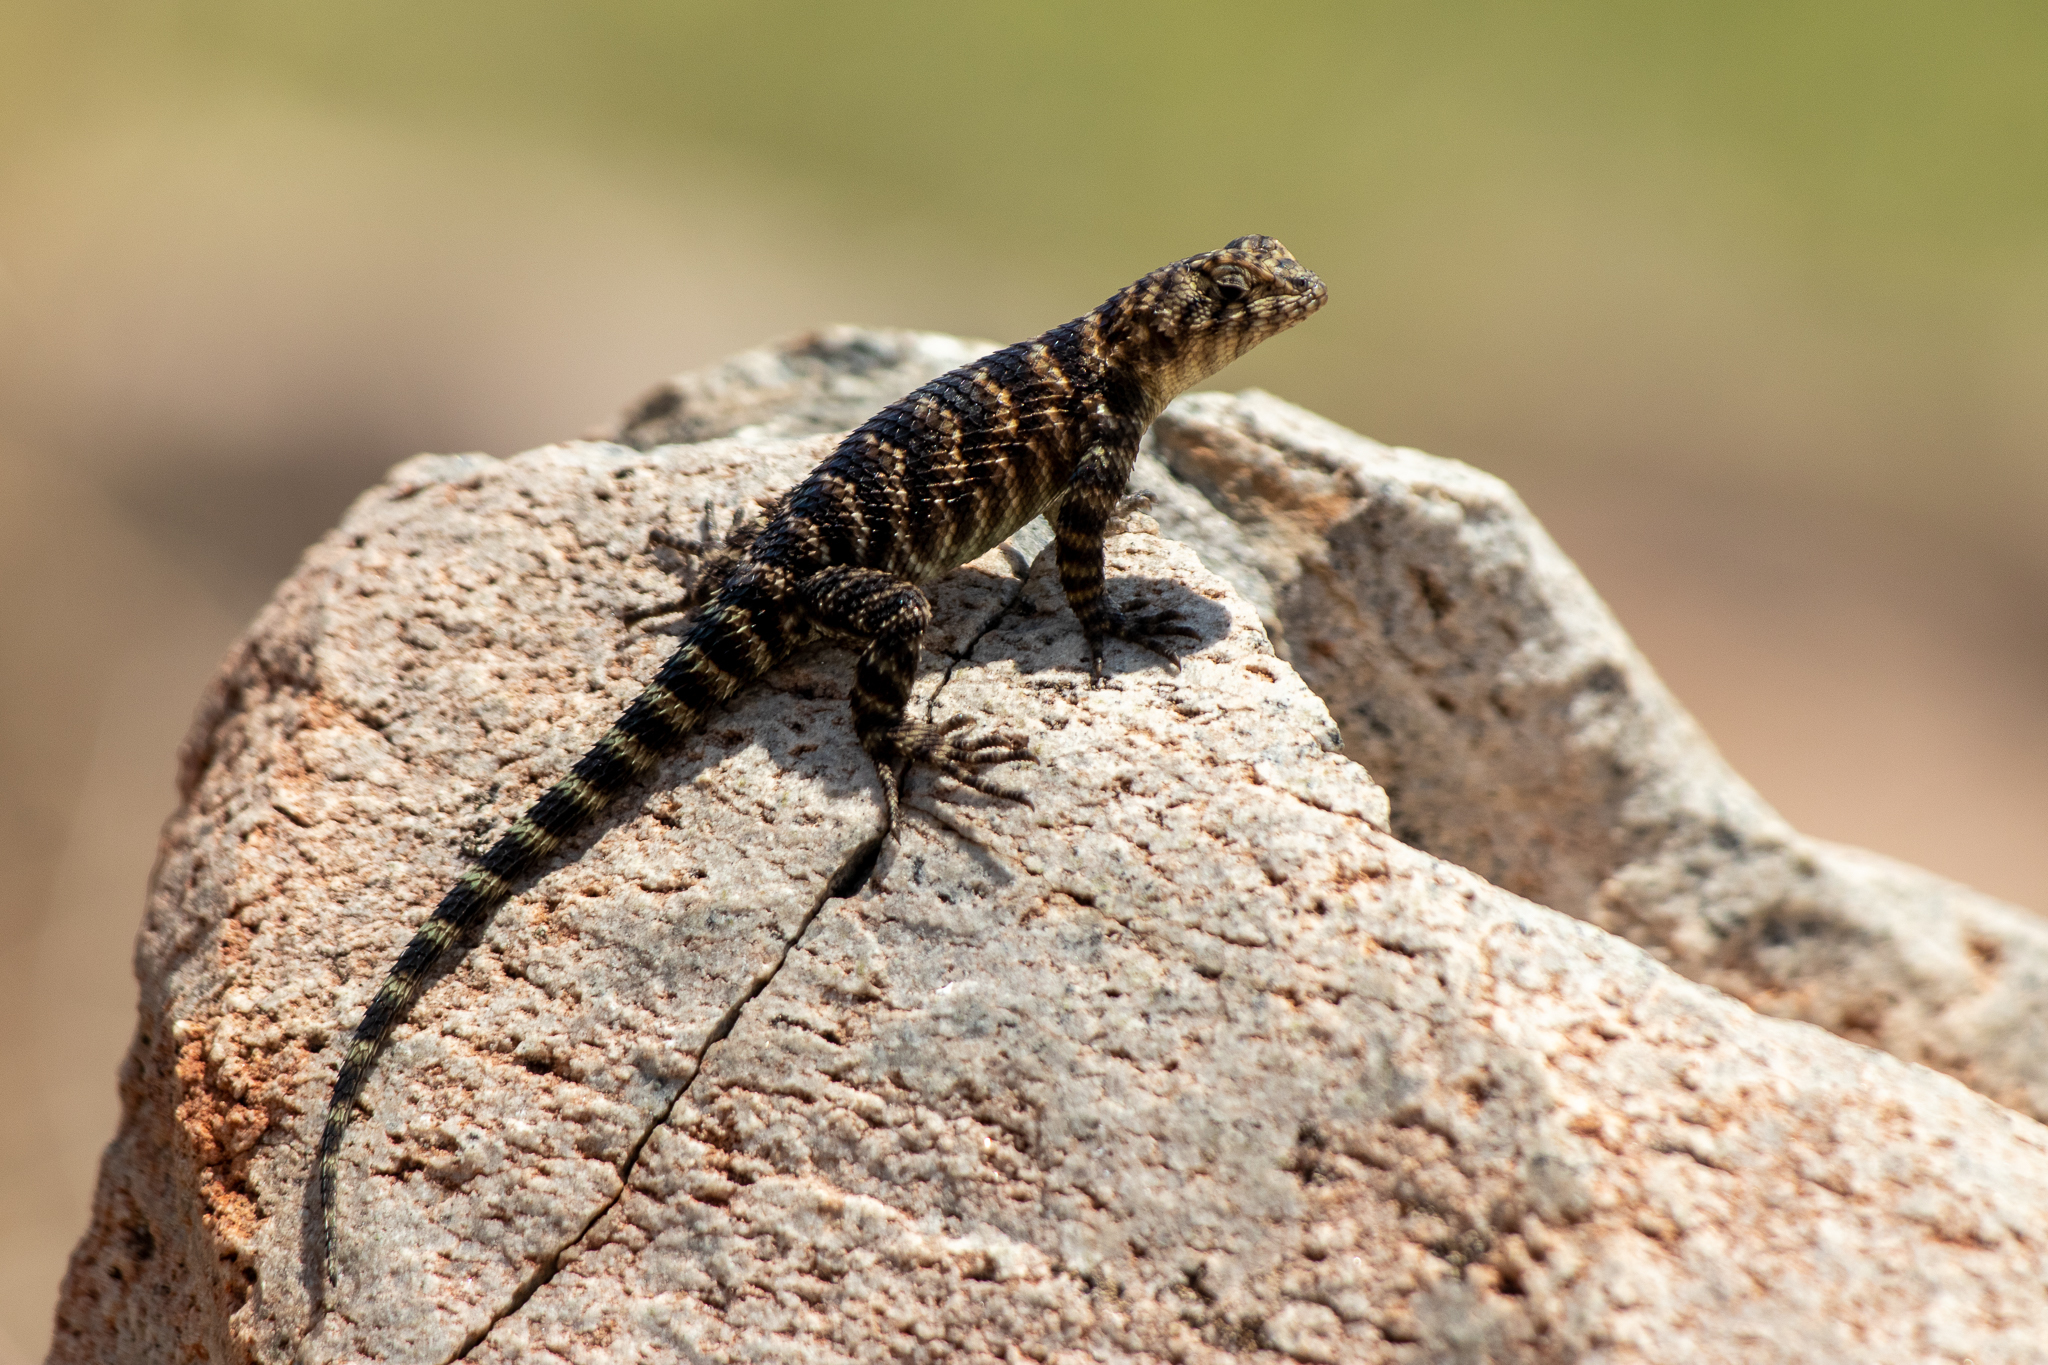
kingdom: Animalia
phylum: Chordata
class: Squamata
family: Phrynosomatidae
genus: Sceloporus
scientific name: Sceloporus orcutti
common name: Granite spiny lizard
